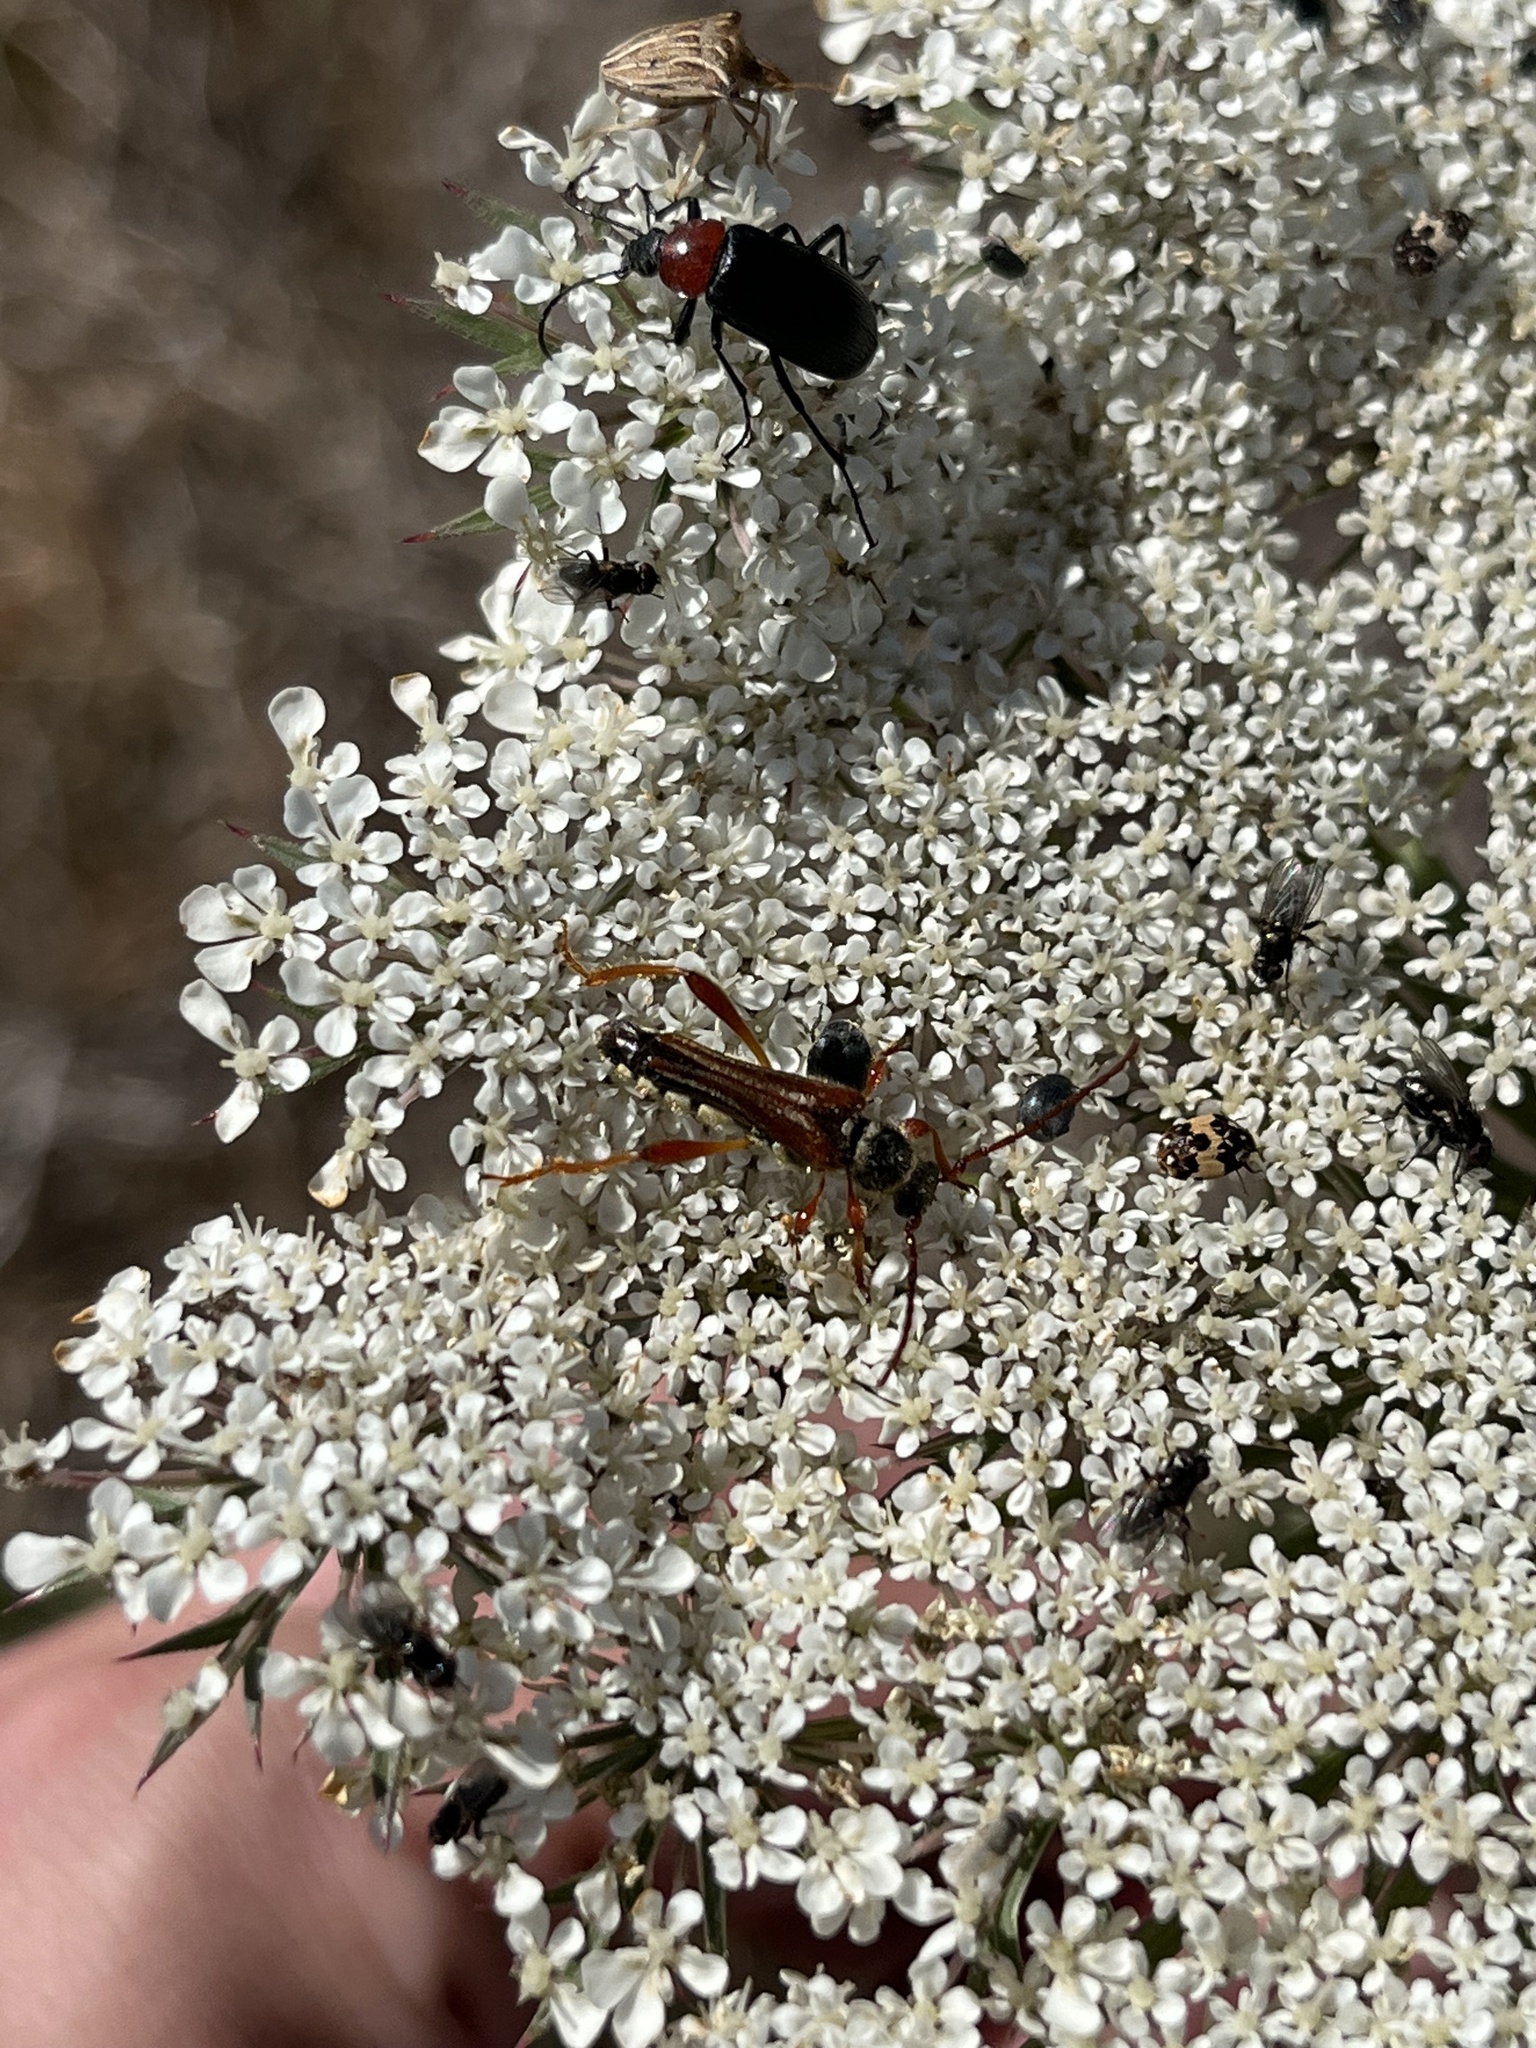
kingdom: Animalia
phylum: Arthropoda
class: Insecta
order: Coleoptera
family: Cerambycidae
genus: Stenopterus
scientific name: Stenopterus mauritanicus
